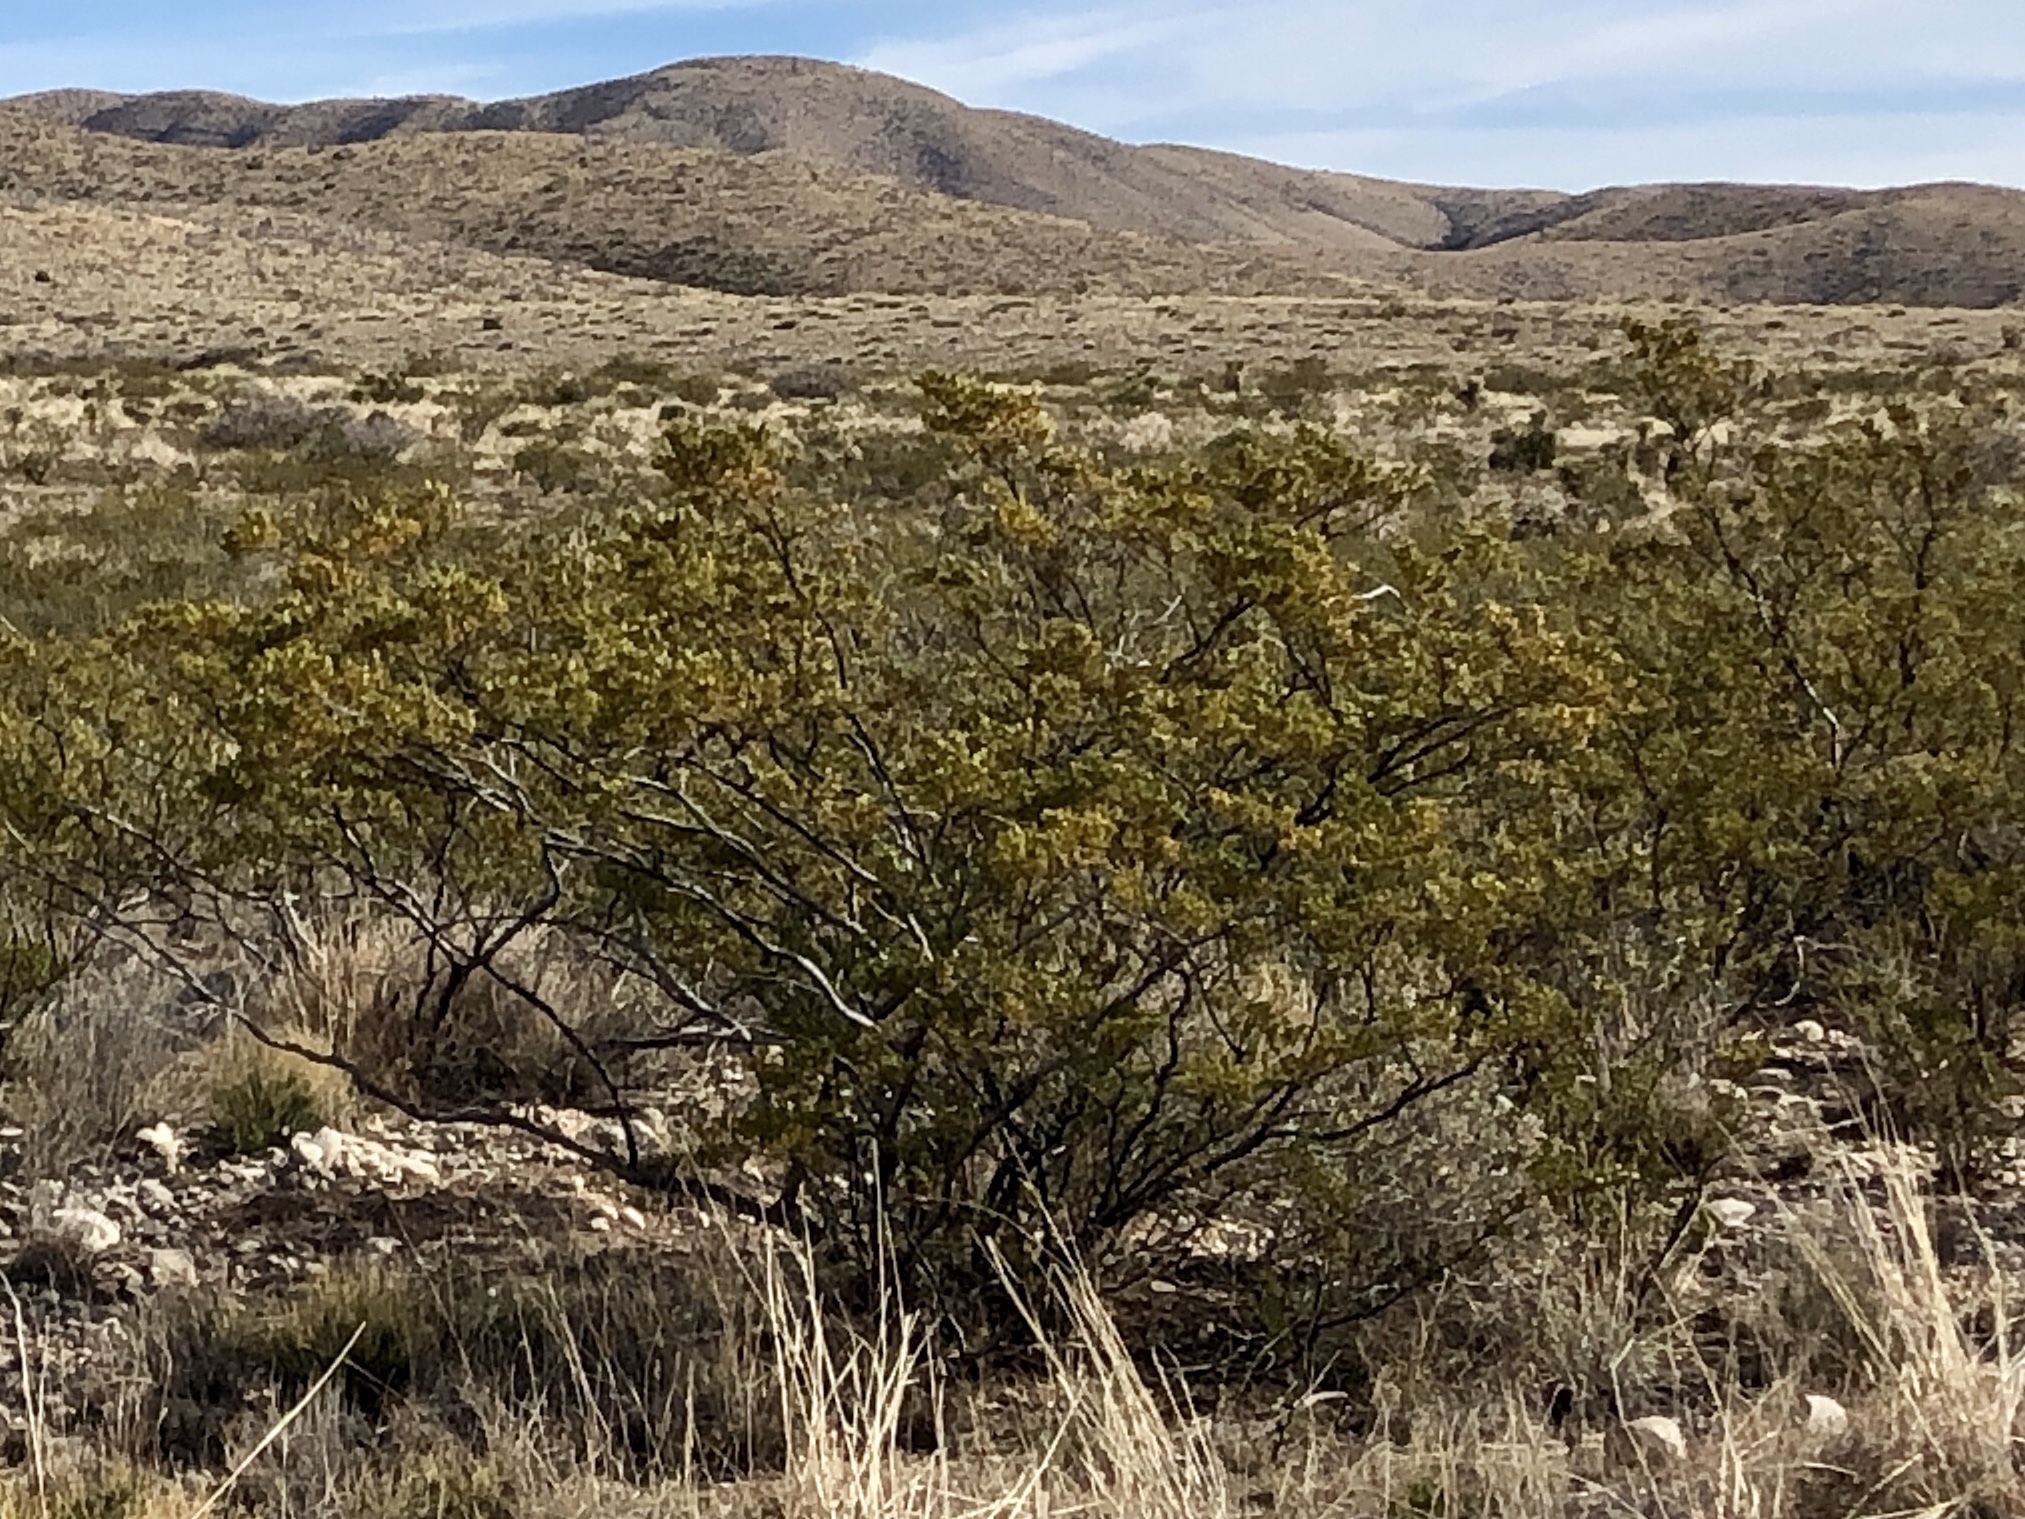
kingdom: Plantae
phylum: Tracheophyta
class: Magnoliopsida
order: Zygophyllales
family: Zygophyllaceae
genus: Larrea
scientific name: Larrea tridentata
